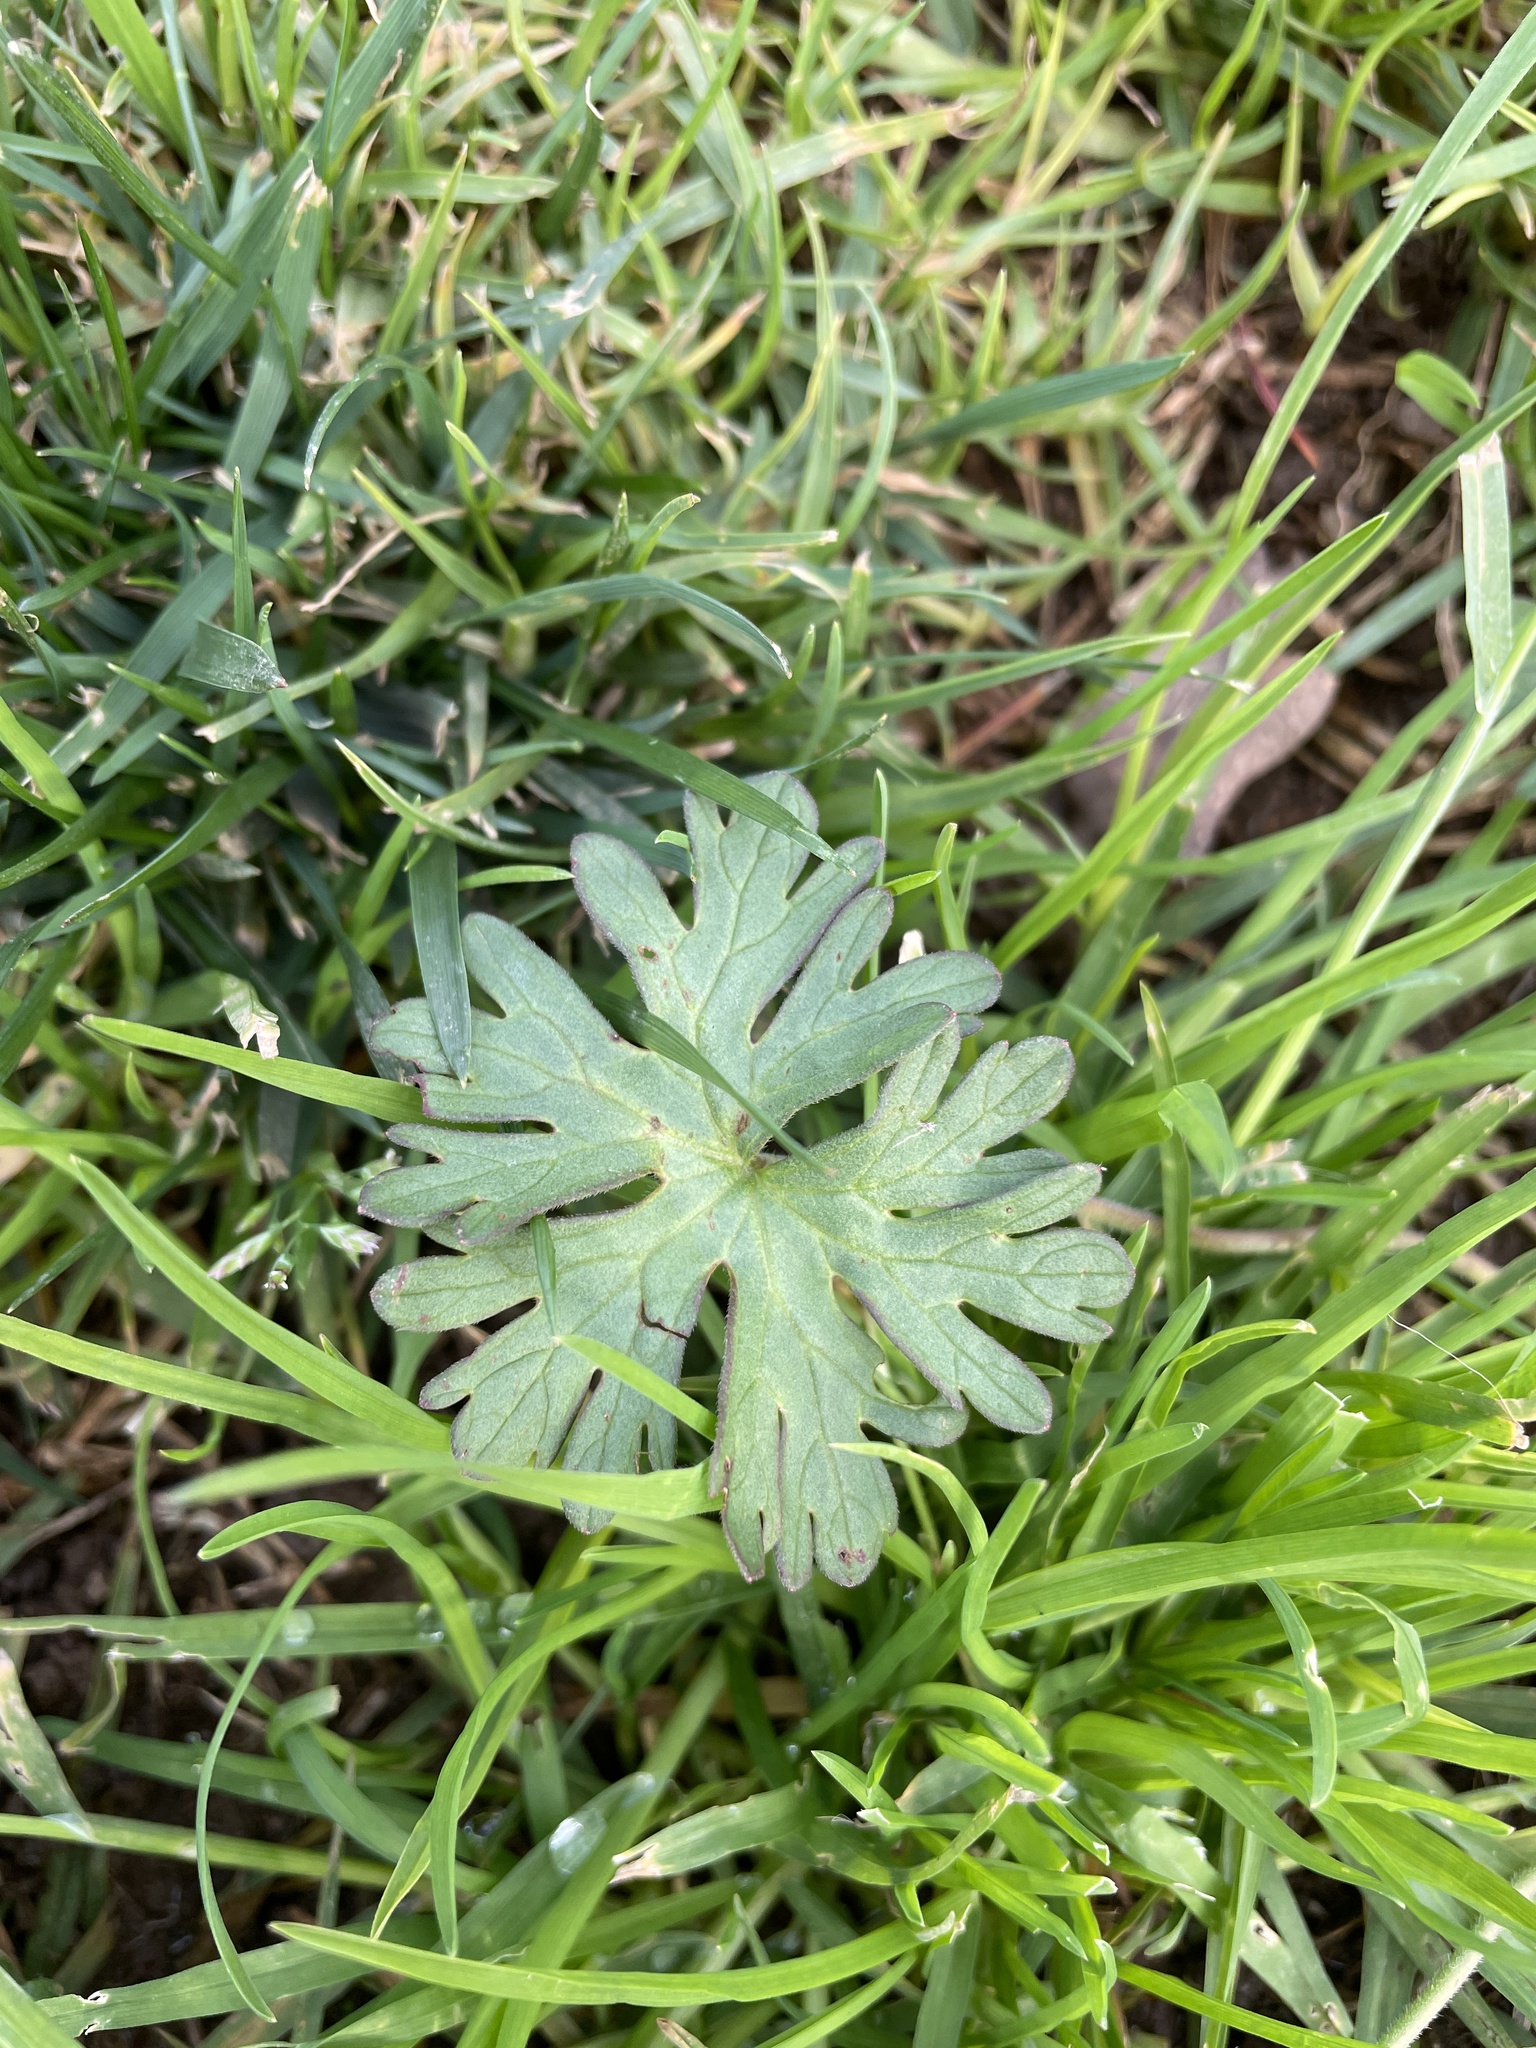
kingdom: Plantae
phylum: Tracheophyta
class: Magnoliopsida
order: Geraniales
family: Geraniaceae
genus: Geranium
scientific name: Geranium
